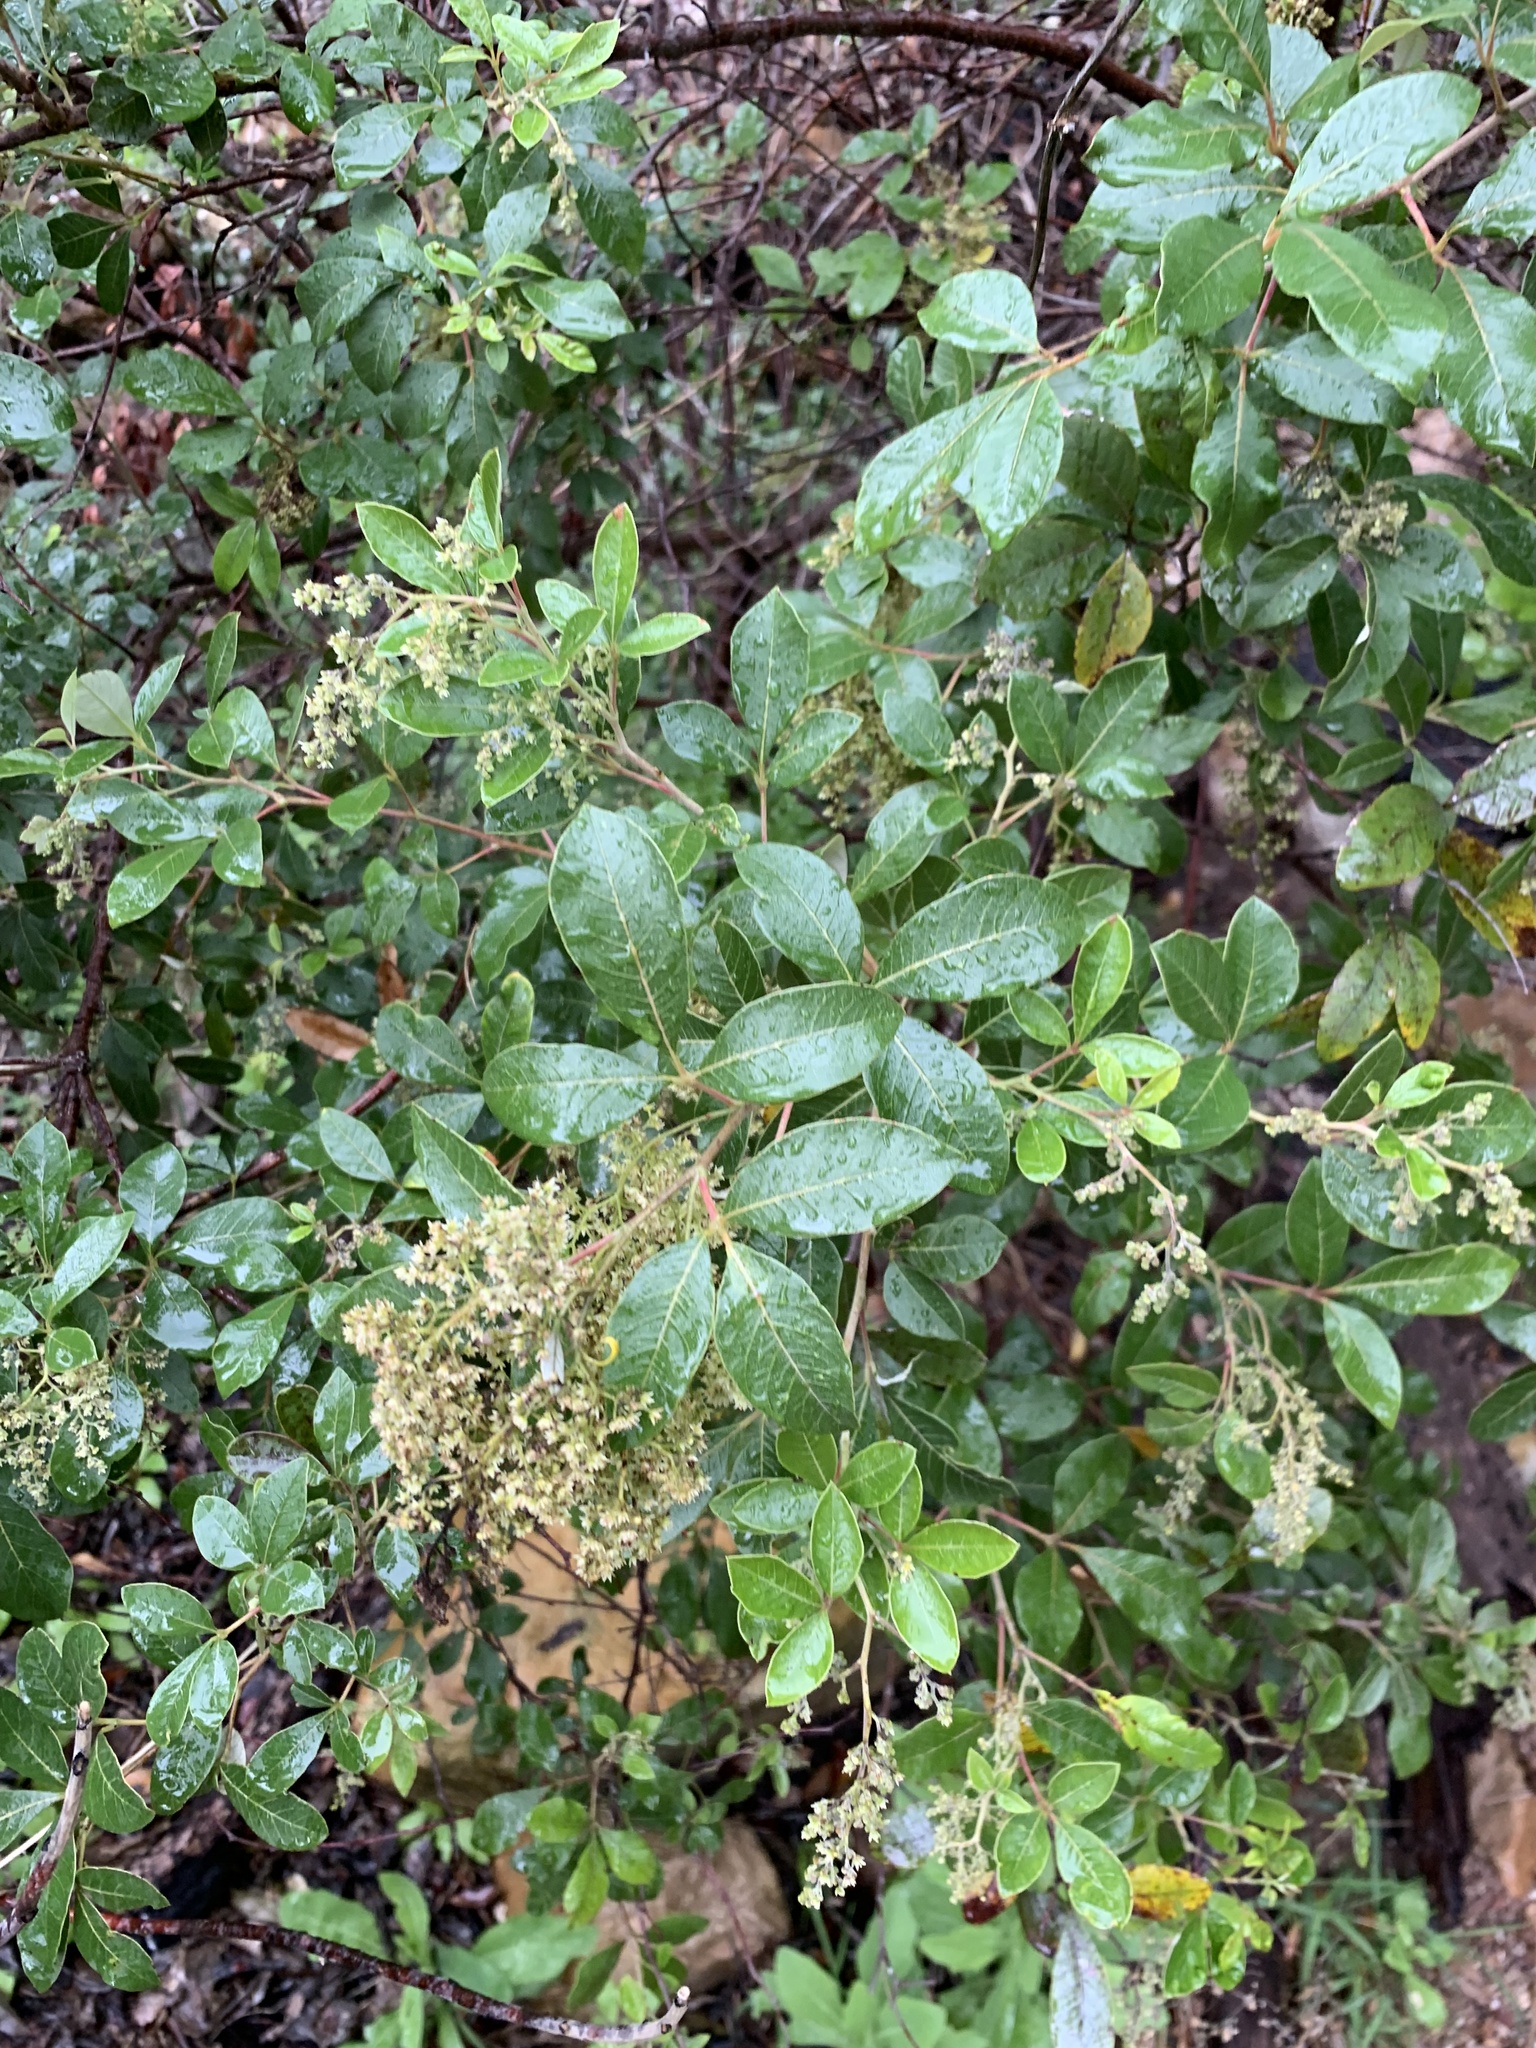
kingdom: Plantae
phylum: Tracheophyta
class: Magnoliopsida
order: Sapindales
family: Anacardiaceae
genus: Searsia
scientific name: Searsia tomentosa
